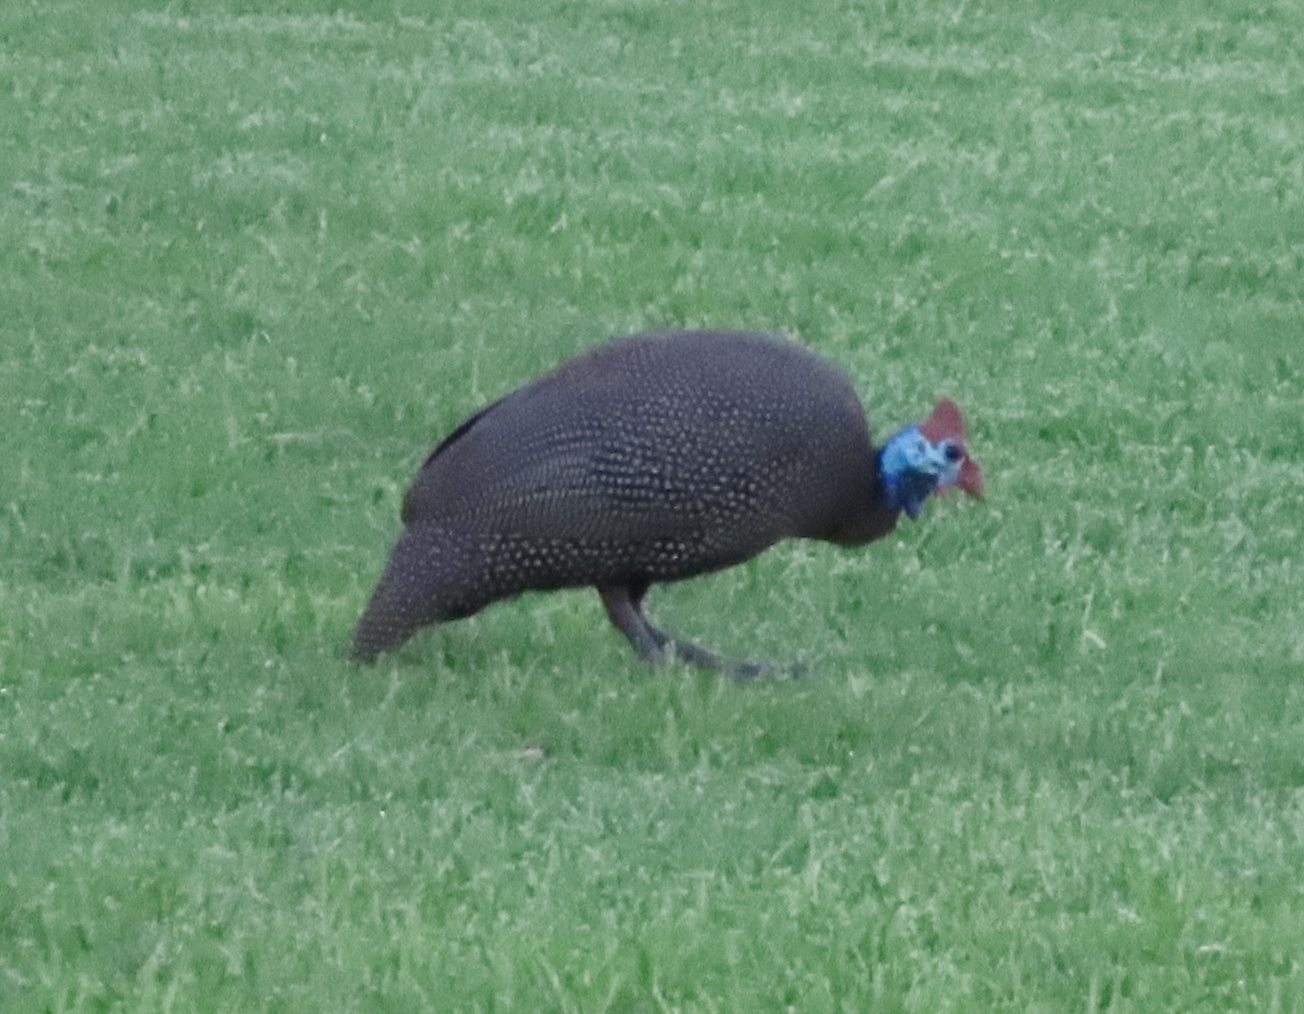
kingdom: Animalia
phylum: Chordata
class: Aves
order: Galliformes
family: Numididae
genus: Numida
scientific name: Numida meleagris
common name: Helmeted guineafowl
